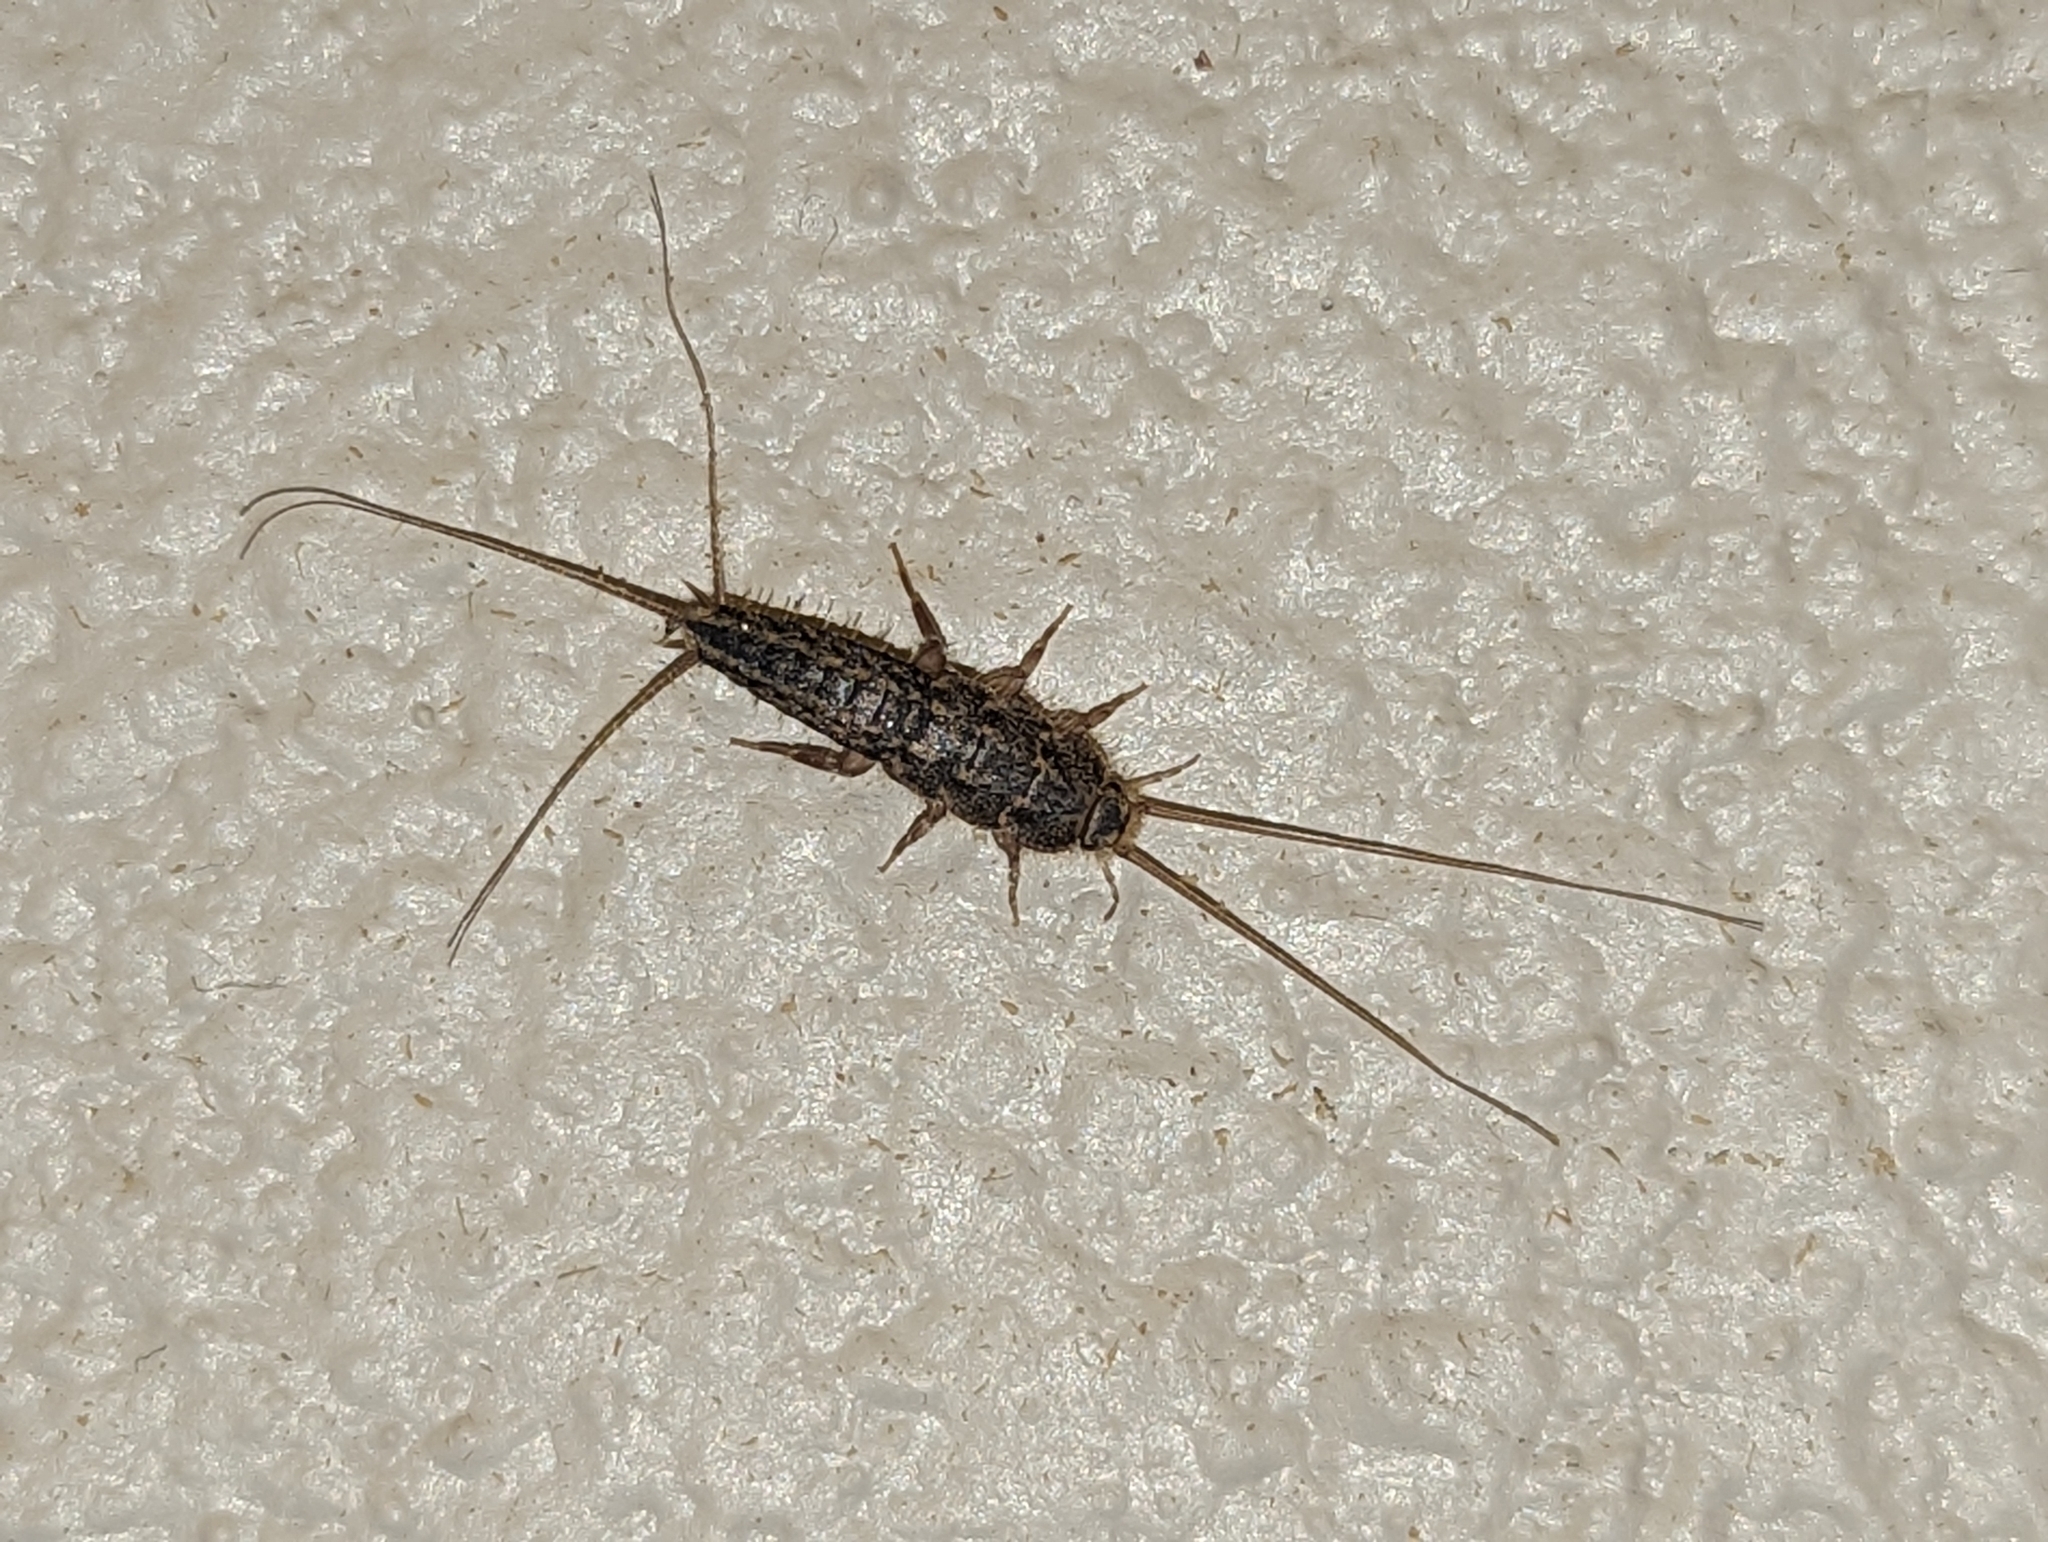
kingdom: Animalia
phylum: Arthropoda
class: Insecta
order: Zygentoma
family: Lepismatidae
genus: Ctenolepisma
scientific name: Ctenolepisma lineata
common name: Four-lined silverfish
